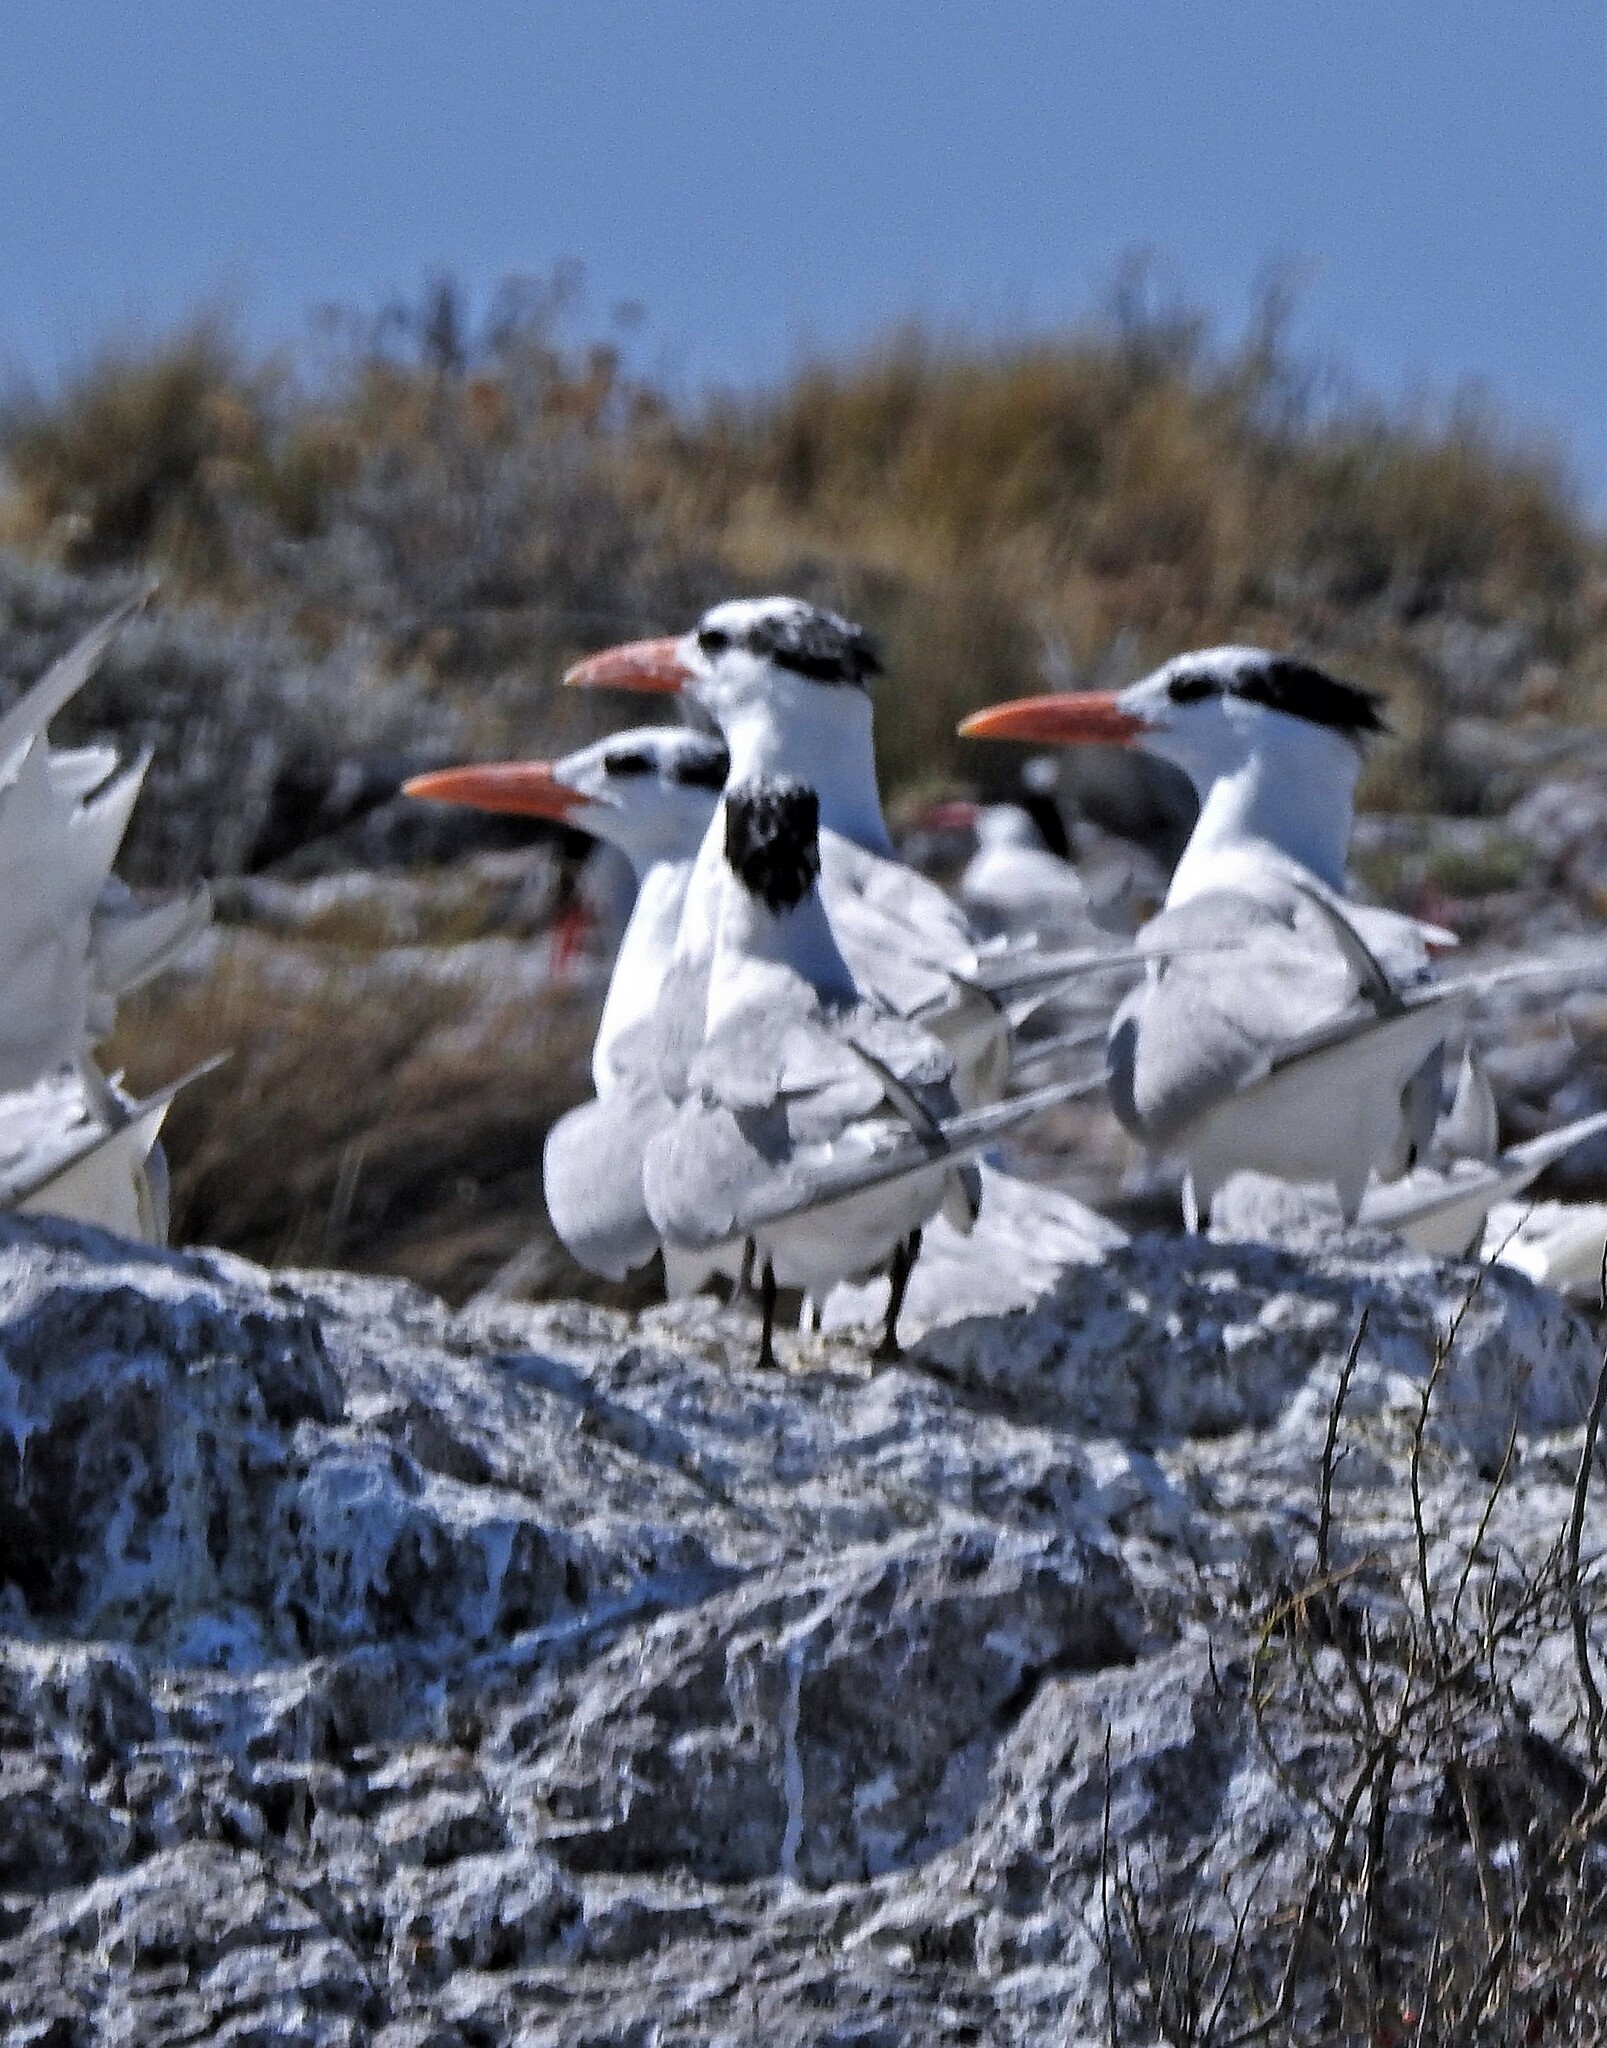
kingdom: Animalia
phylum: Chordata
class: Aves
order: Charadriiformes
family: Laridae
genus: Thalasseus
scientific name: Thalasseus maximus
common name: Royal tern
